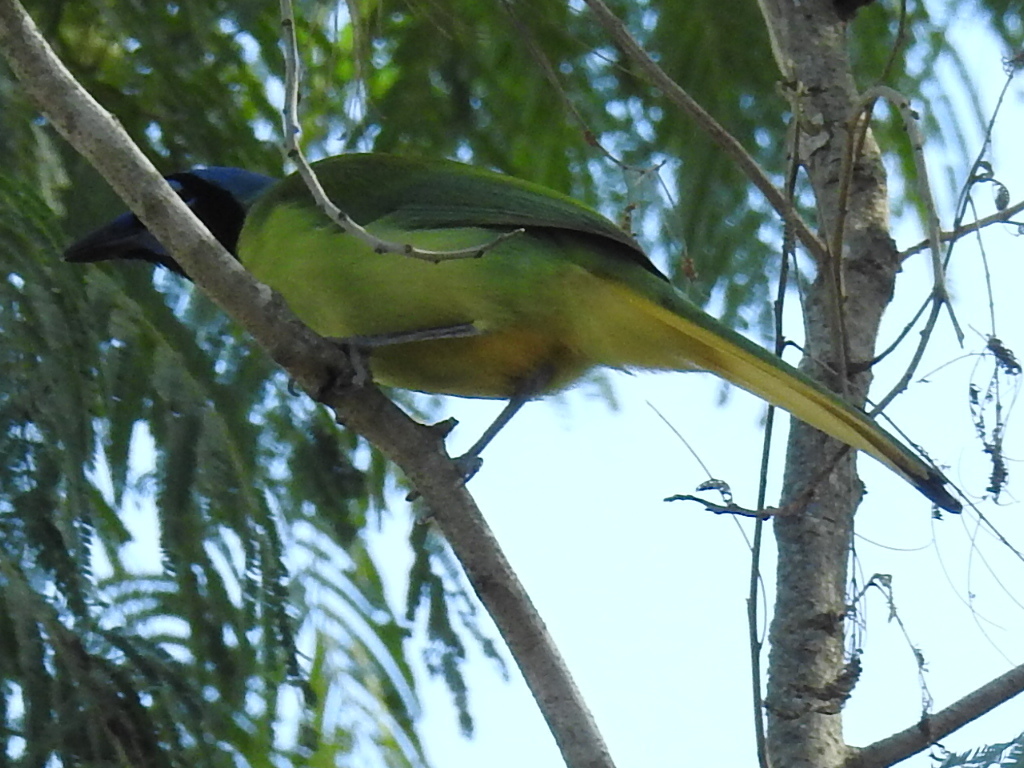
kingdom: Animalia
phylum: Chordata
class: Aves
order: Passeriformes
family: Corvidae
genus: Cyanocorax
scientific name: Cyanocorax yncas
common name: Green jay
